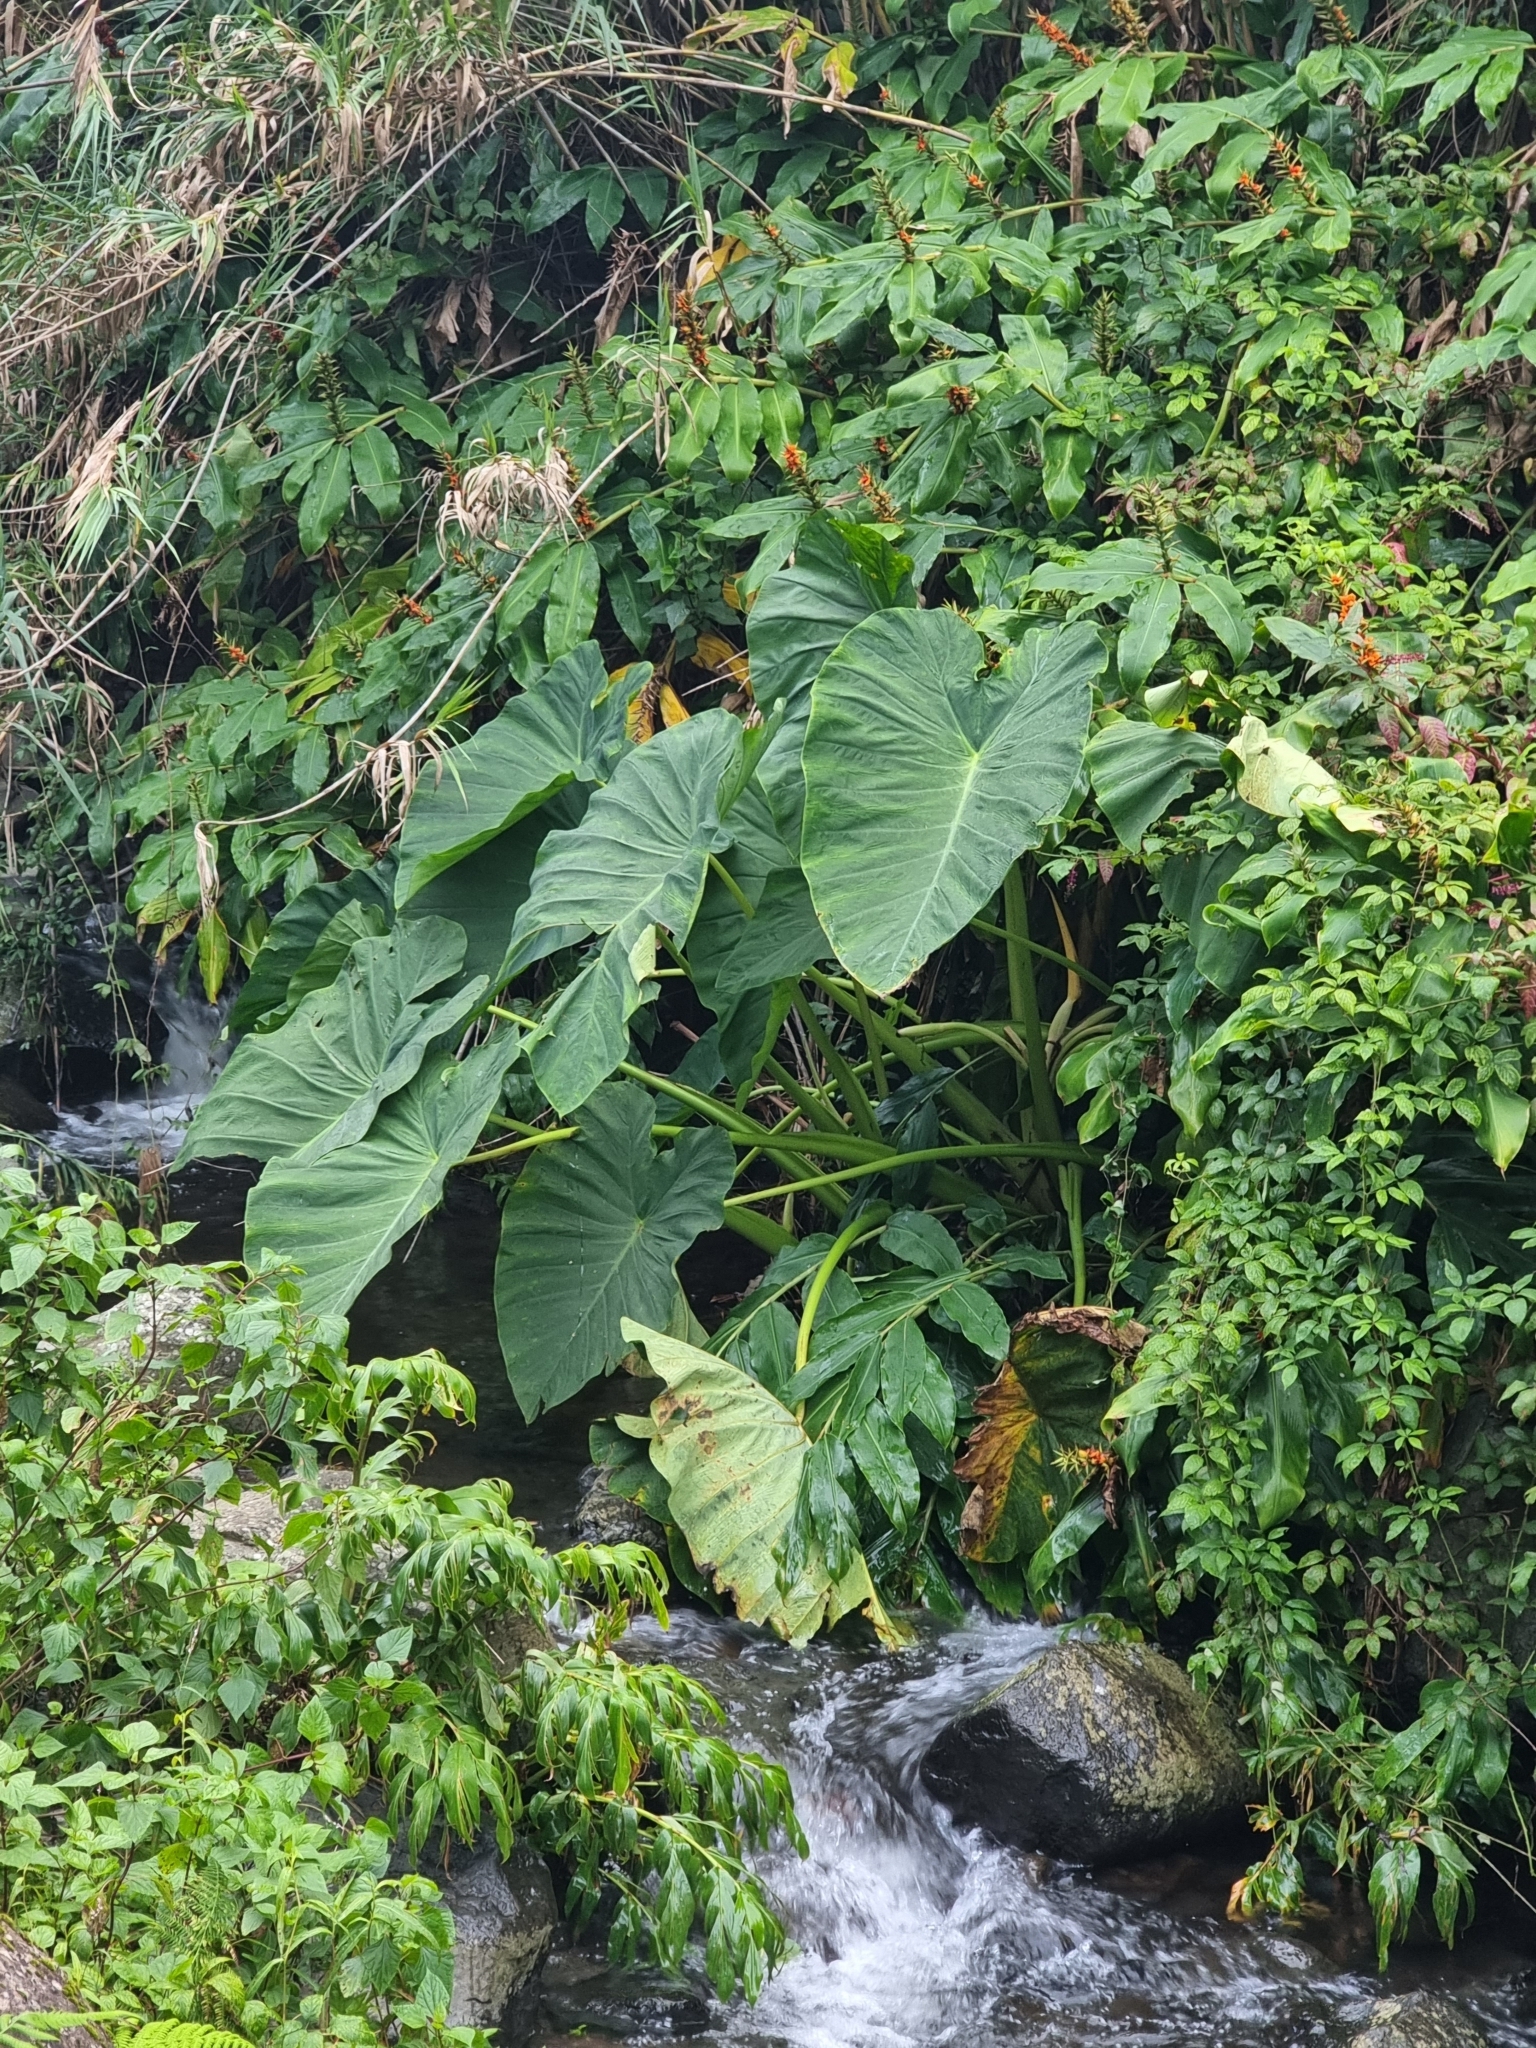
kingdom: Plantae
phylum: Tracheophyta
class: Liliopsida
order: Alismatales
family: Araceae
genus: Colocasia
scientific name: Colocasia esculenta
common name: Taro
